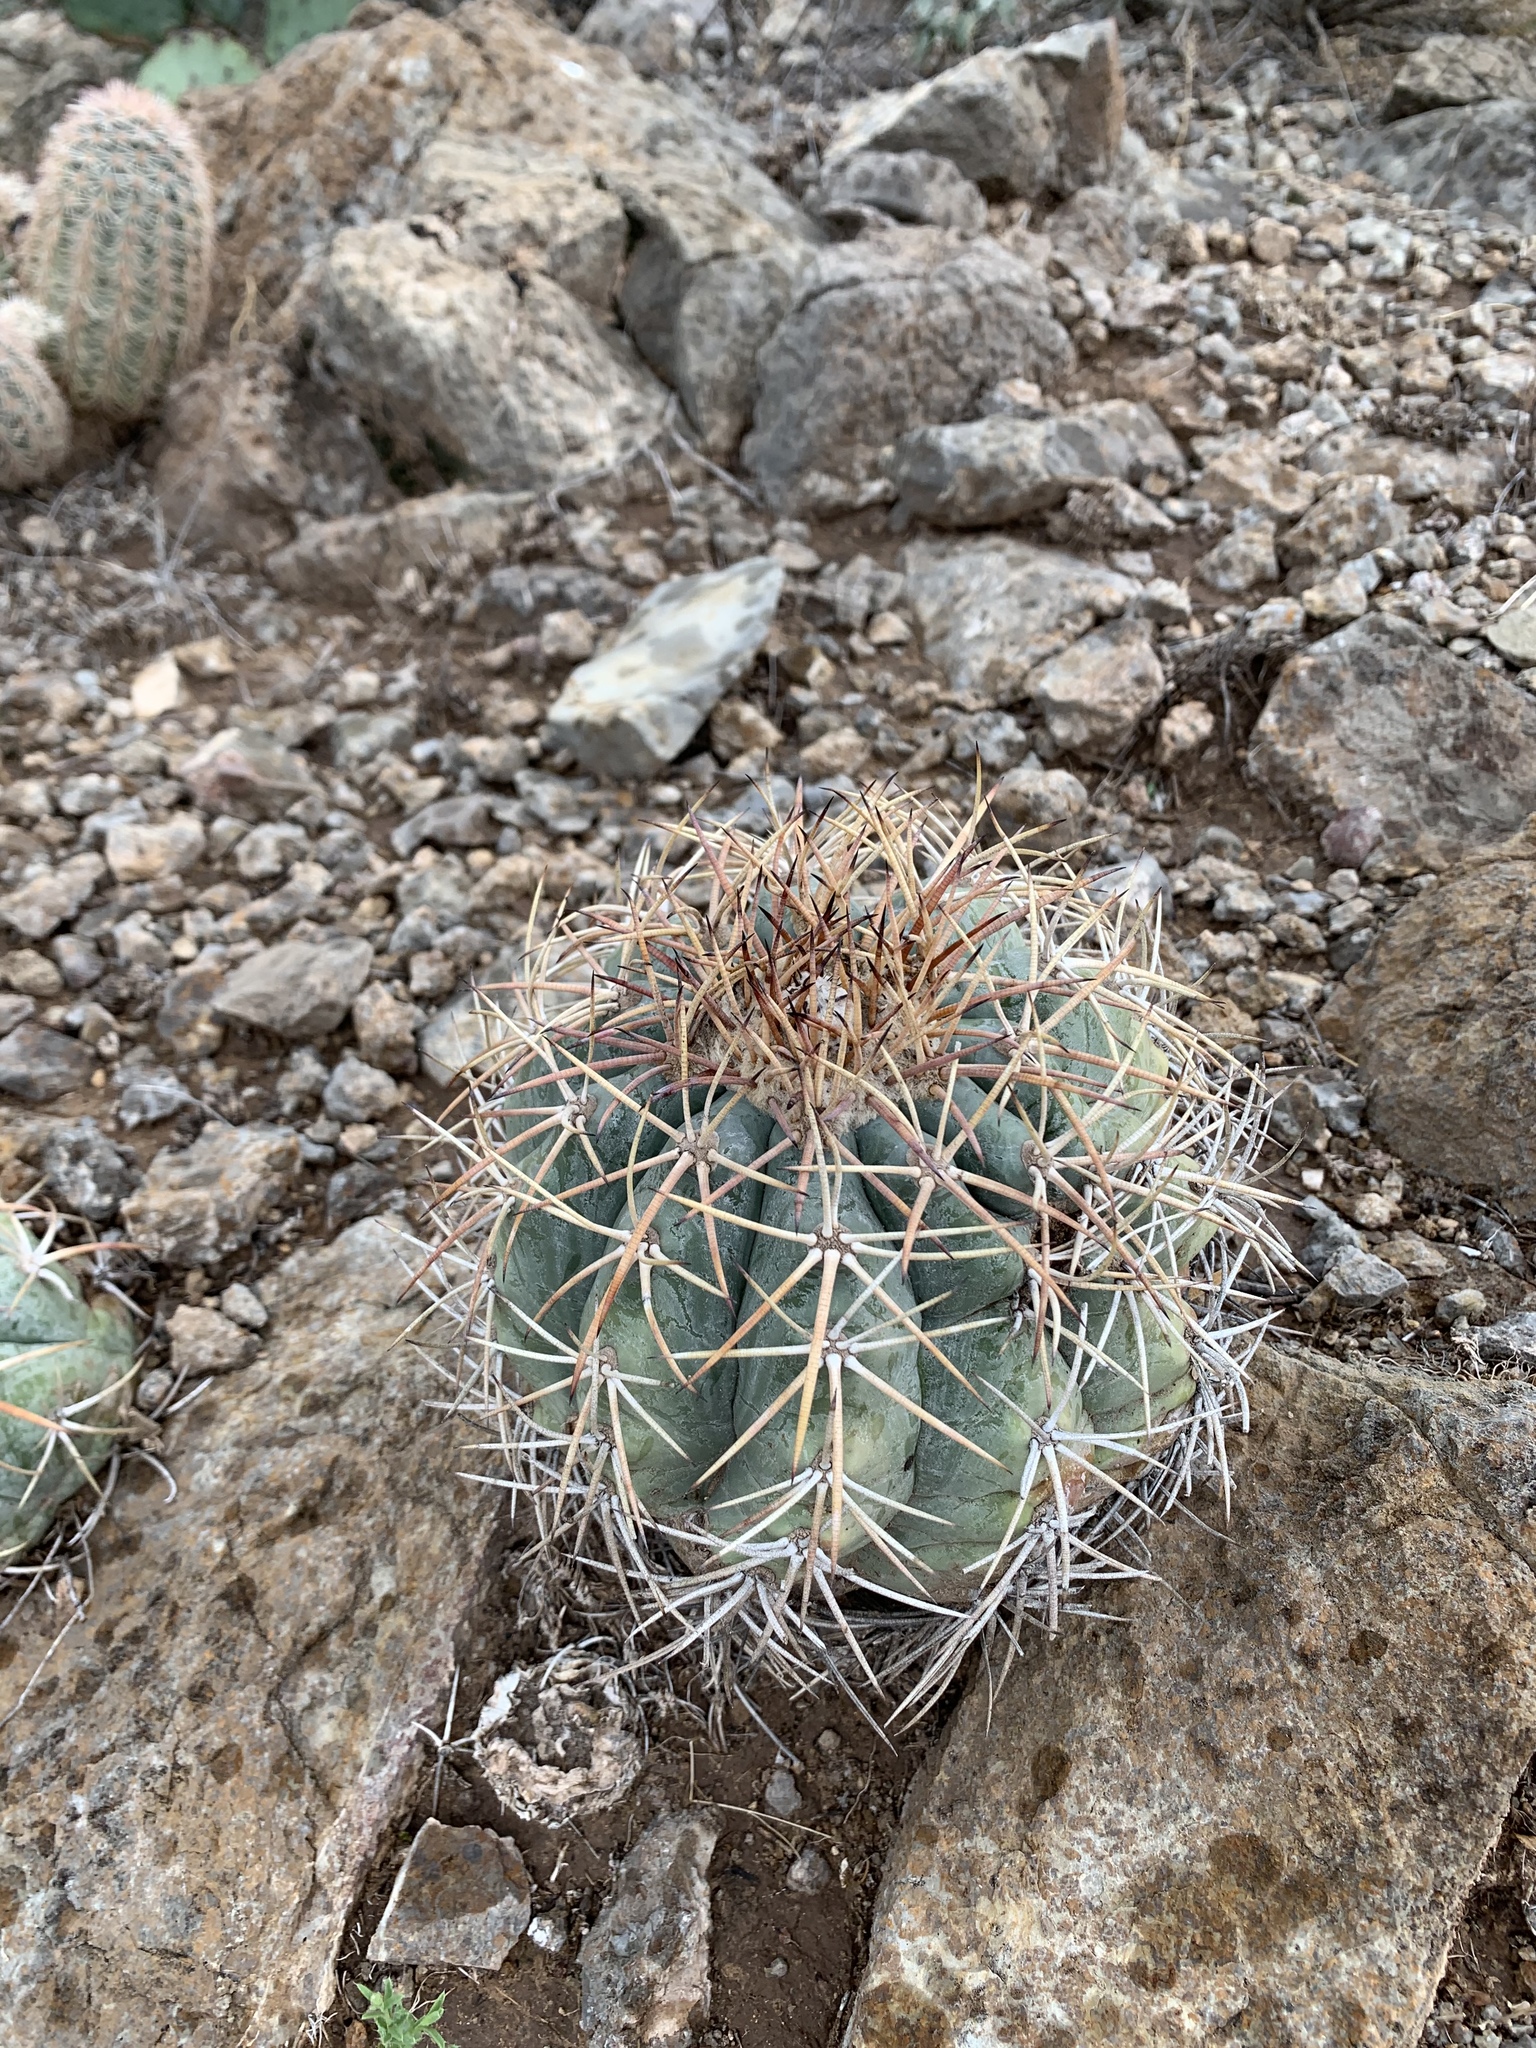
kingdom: Plantae
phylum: Tracheophyta
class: Magnoliopsida
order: Caryophyllales
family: Cactaceae
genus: Echinocactus
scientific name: Echinocactus horizonthalonius
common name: Devilshead
